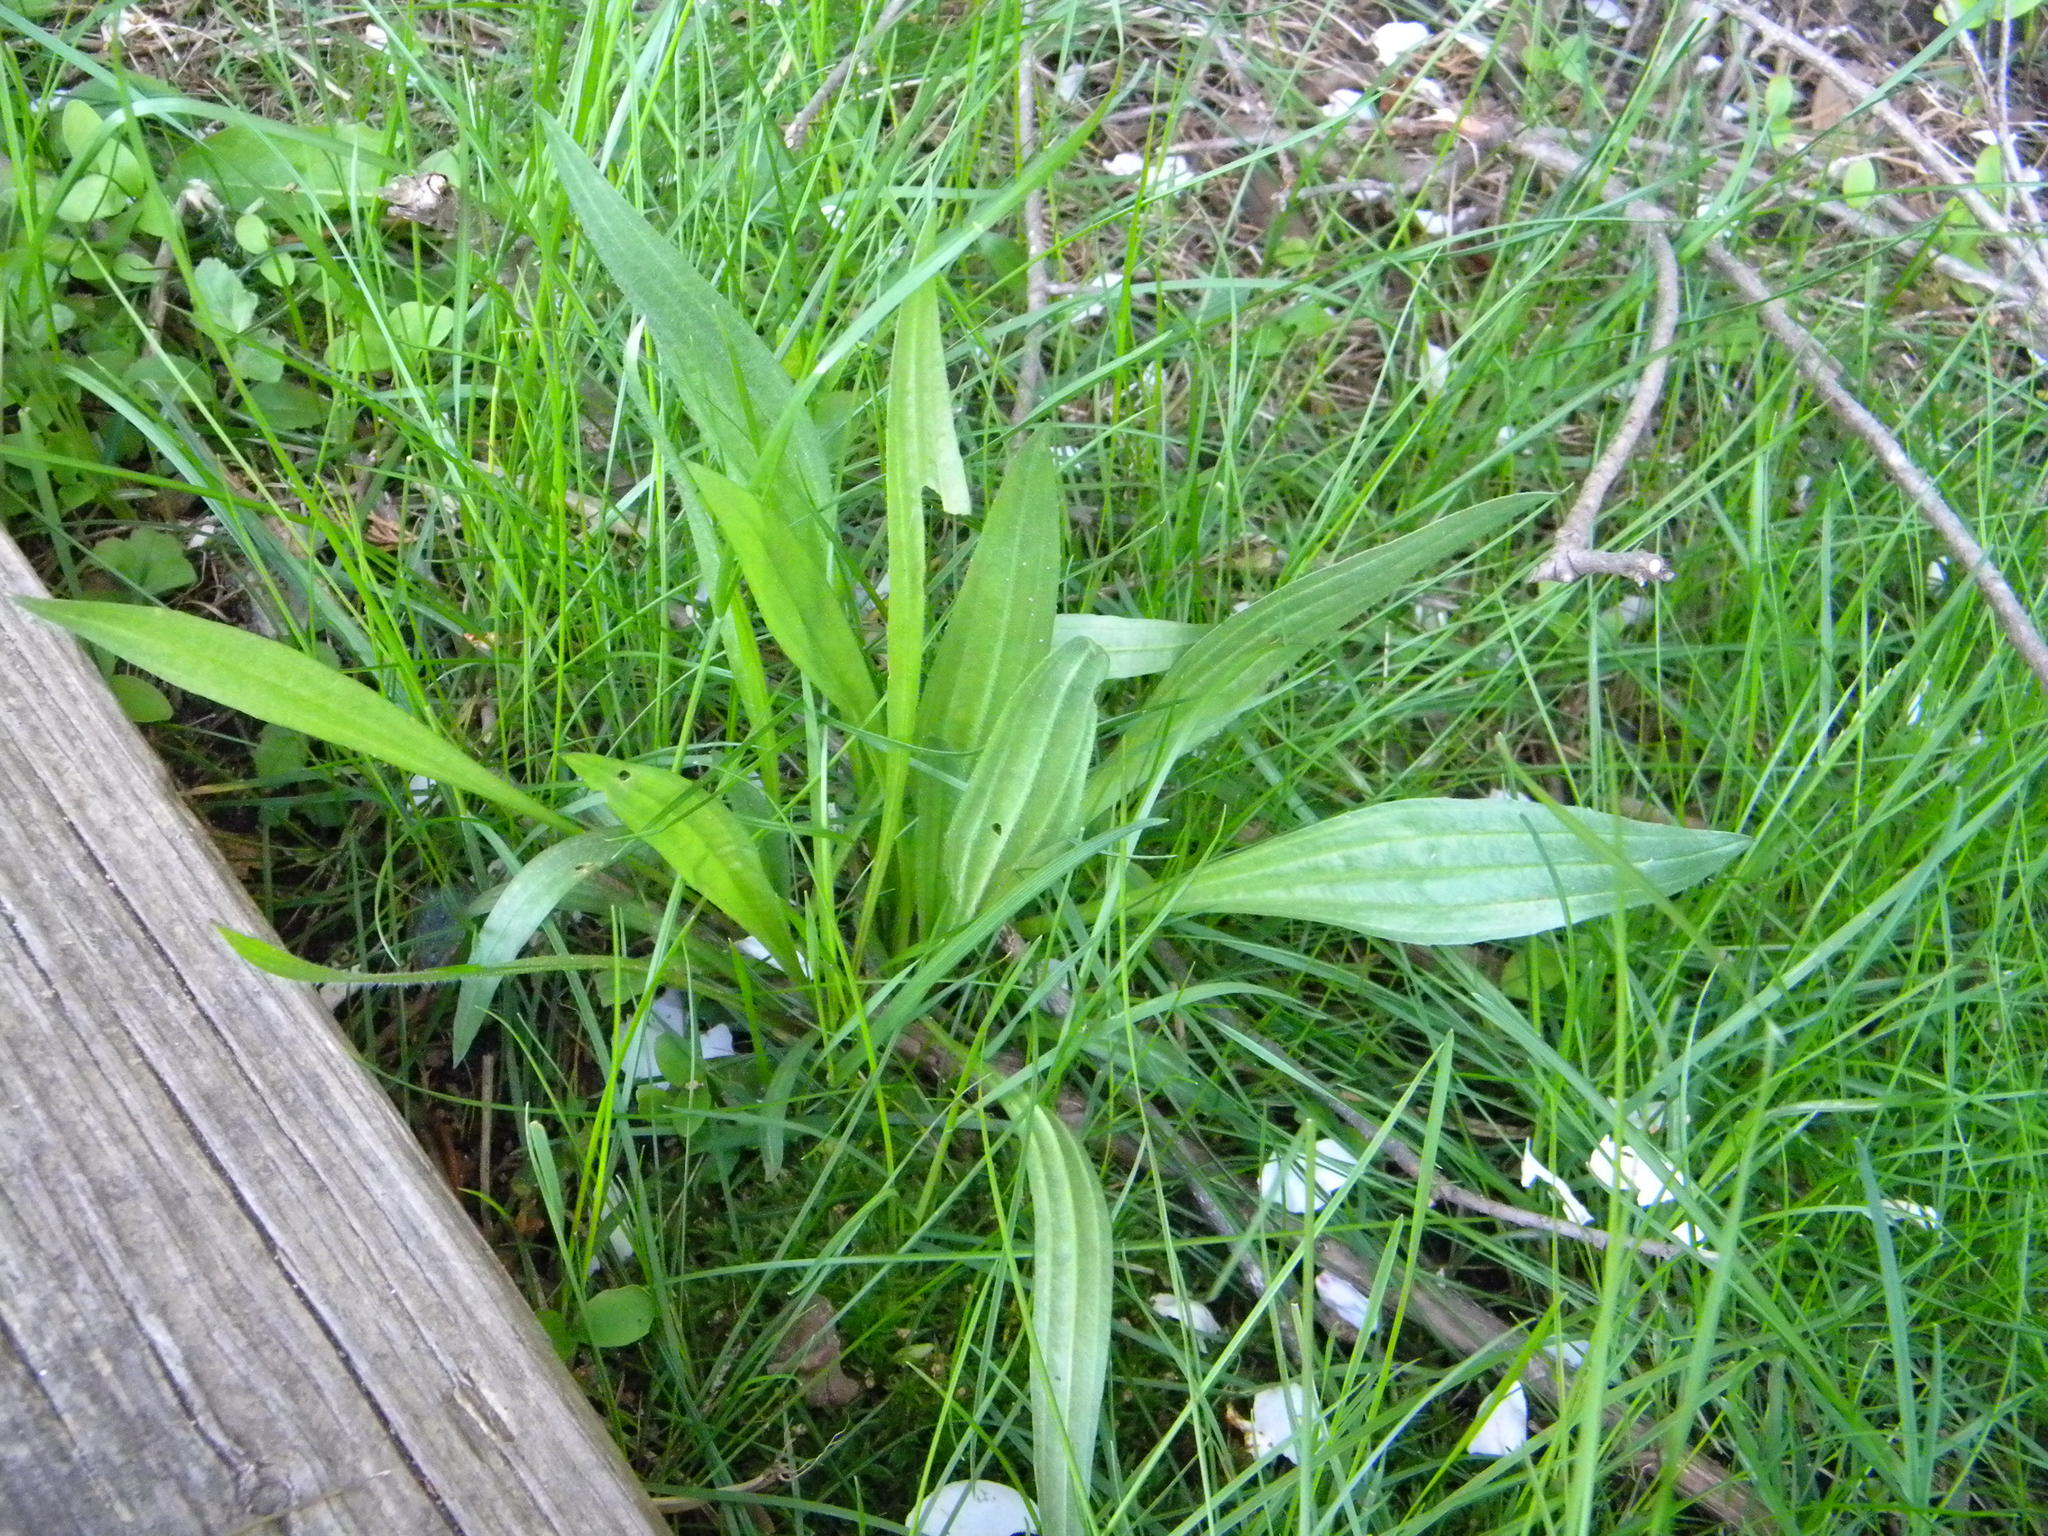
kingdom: Plantae
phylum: Tracheophyta
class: Magnoliopsida
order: Lamiales
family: Plantaginaceae
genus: Plantago
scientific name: Plantago lanceolata
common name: Ribwort plantain
